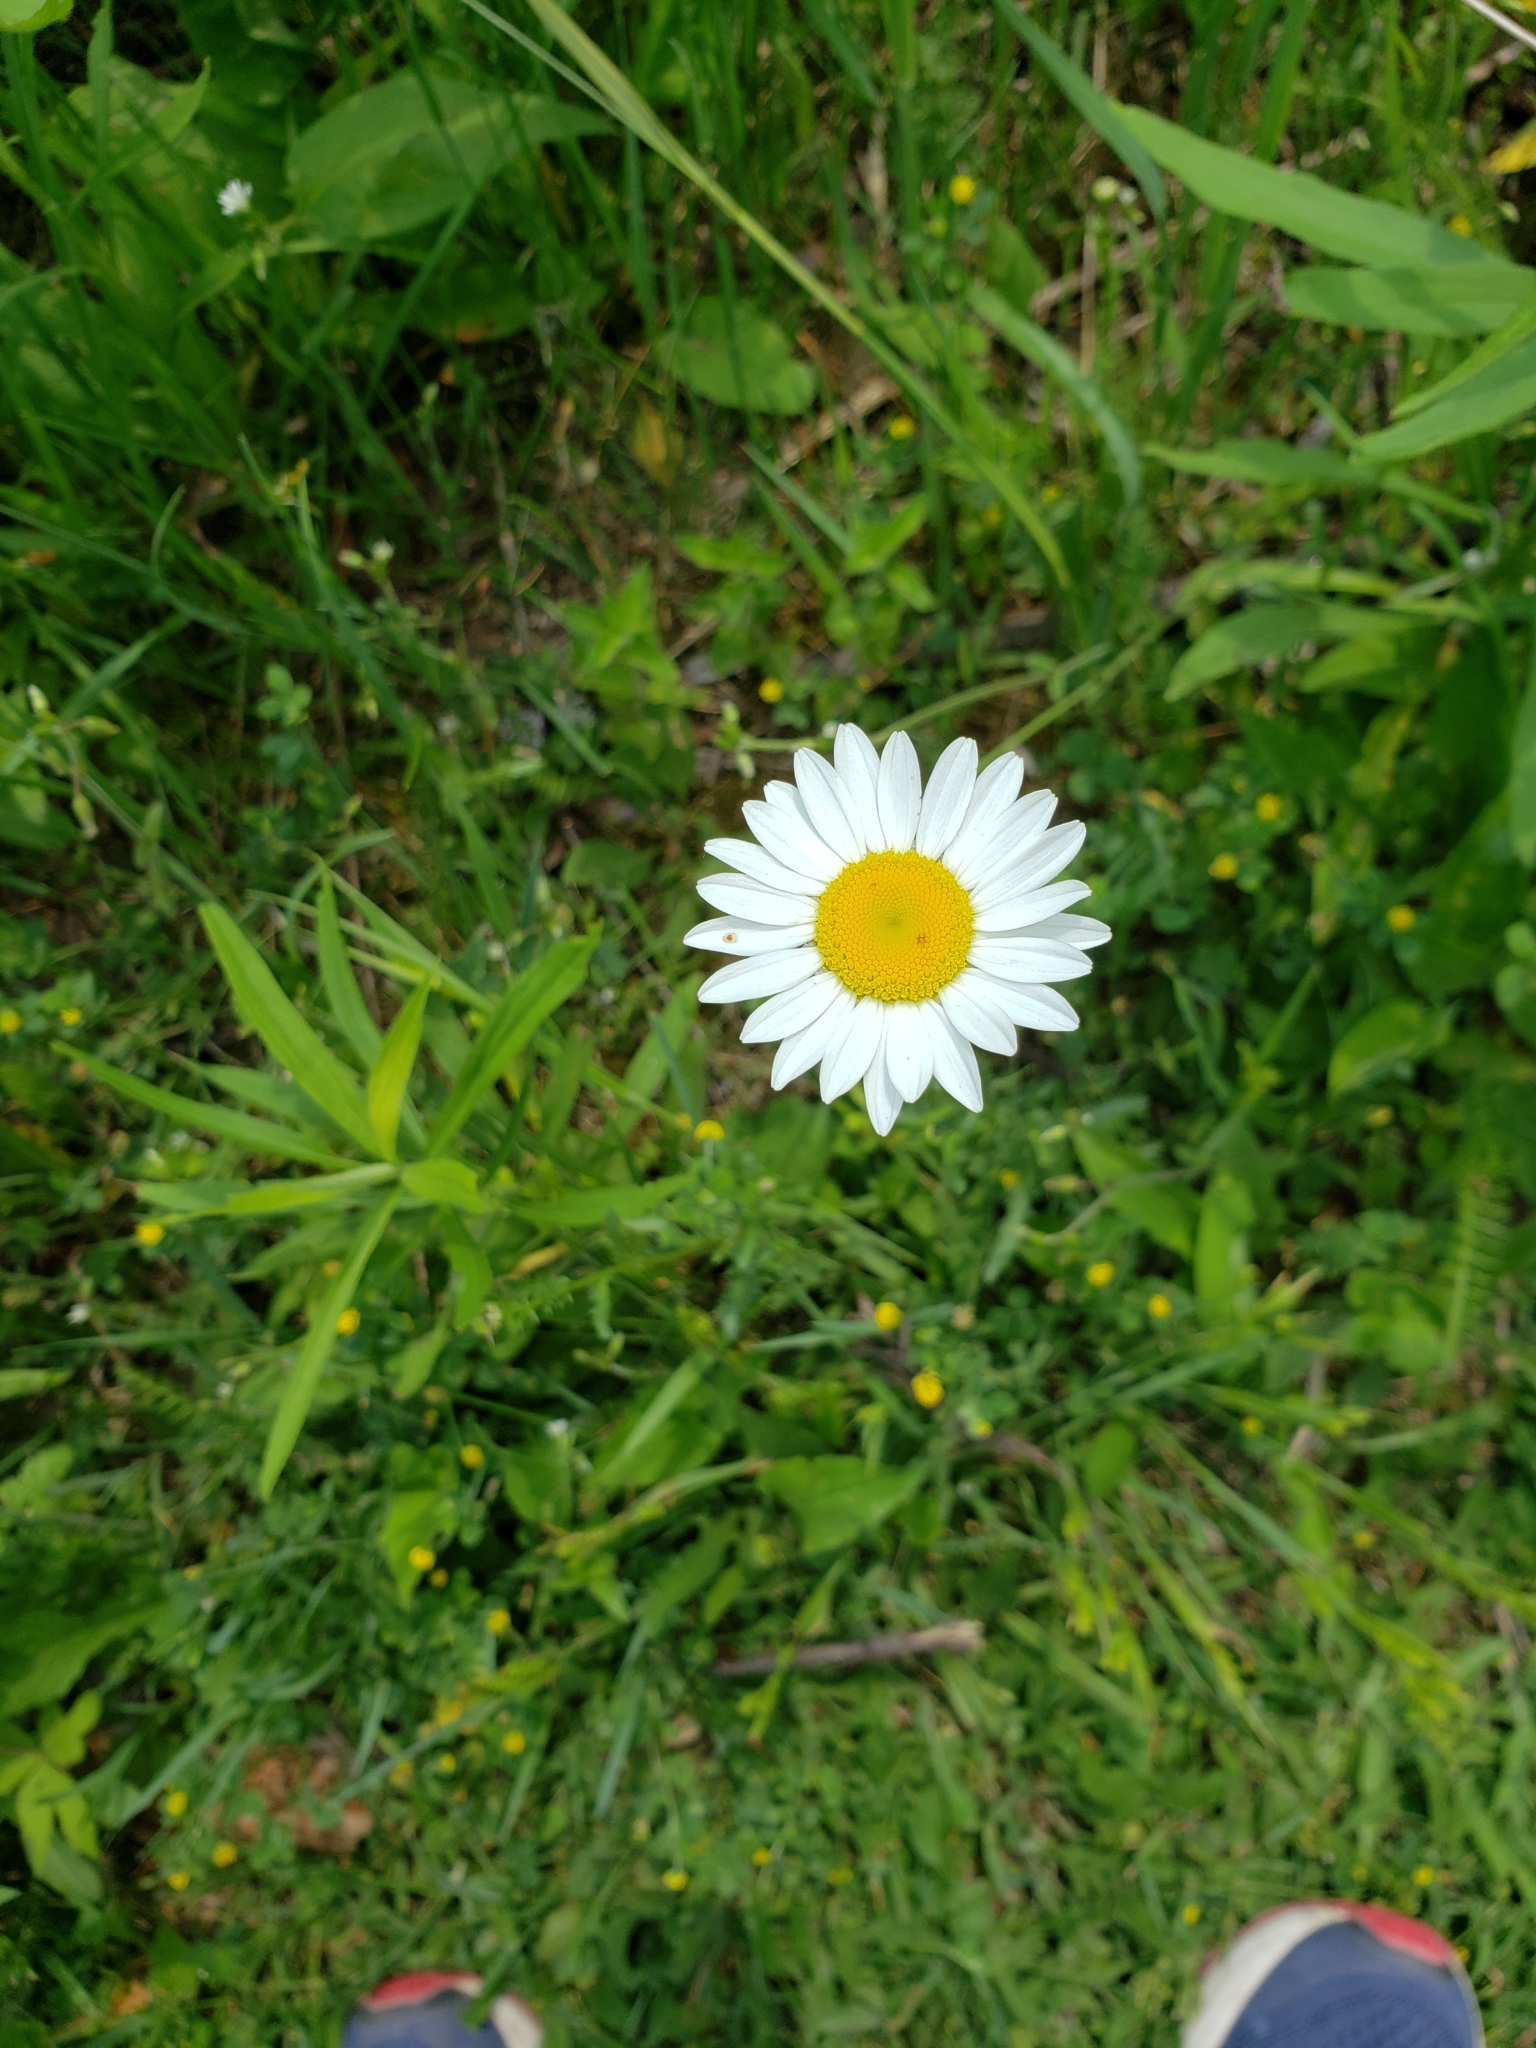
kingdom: Plantae
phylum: Tracheophyta
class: Magnoliopsida
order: Asterales
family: Asteraceae
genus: Leucanthemum
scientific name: Leucanthemum vulgare
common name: Oxeye daisy
